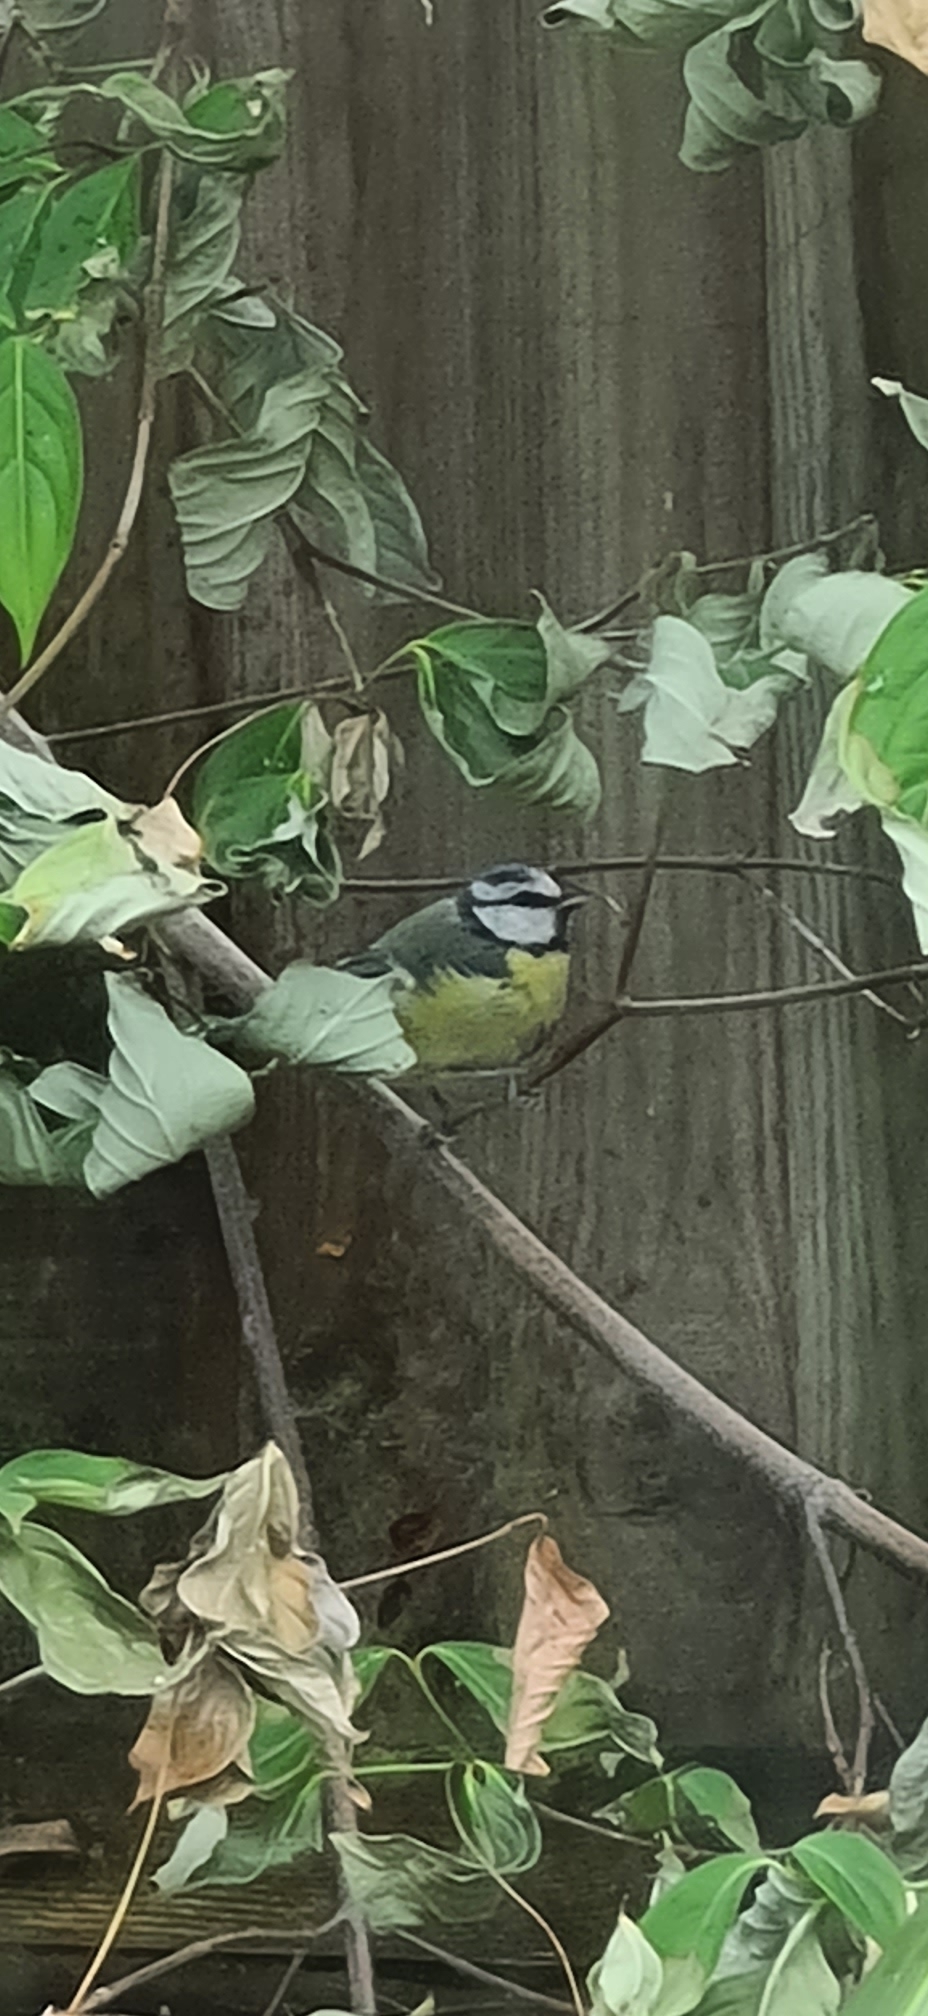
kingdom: Animalia
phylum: Chordata
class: Aves
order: Passeriformes
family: Paridae
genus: Cyanistes
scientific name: Cyanistes caeruleus
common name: Eurasian blue tit
